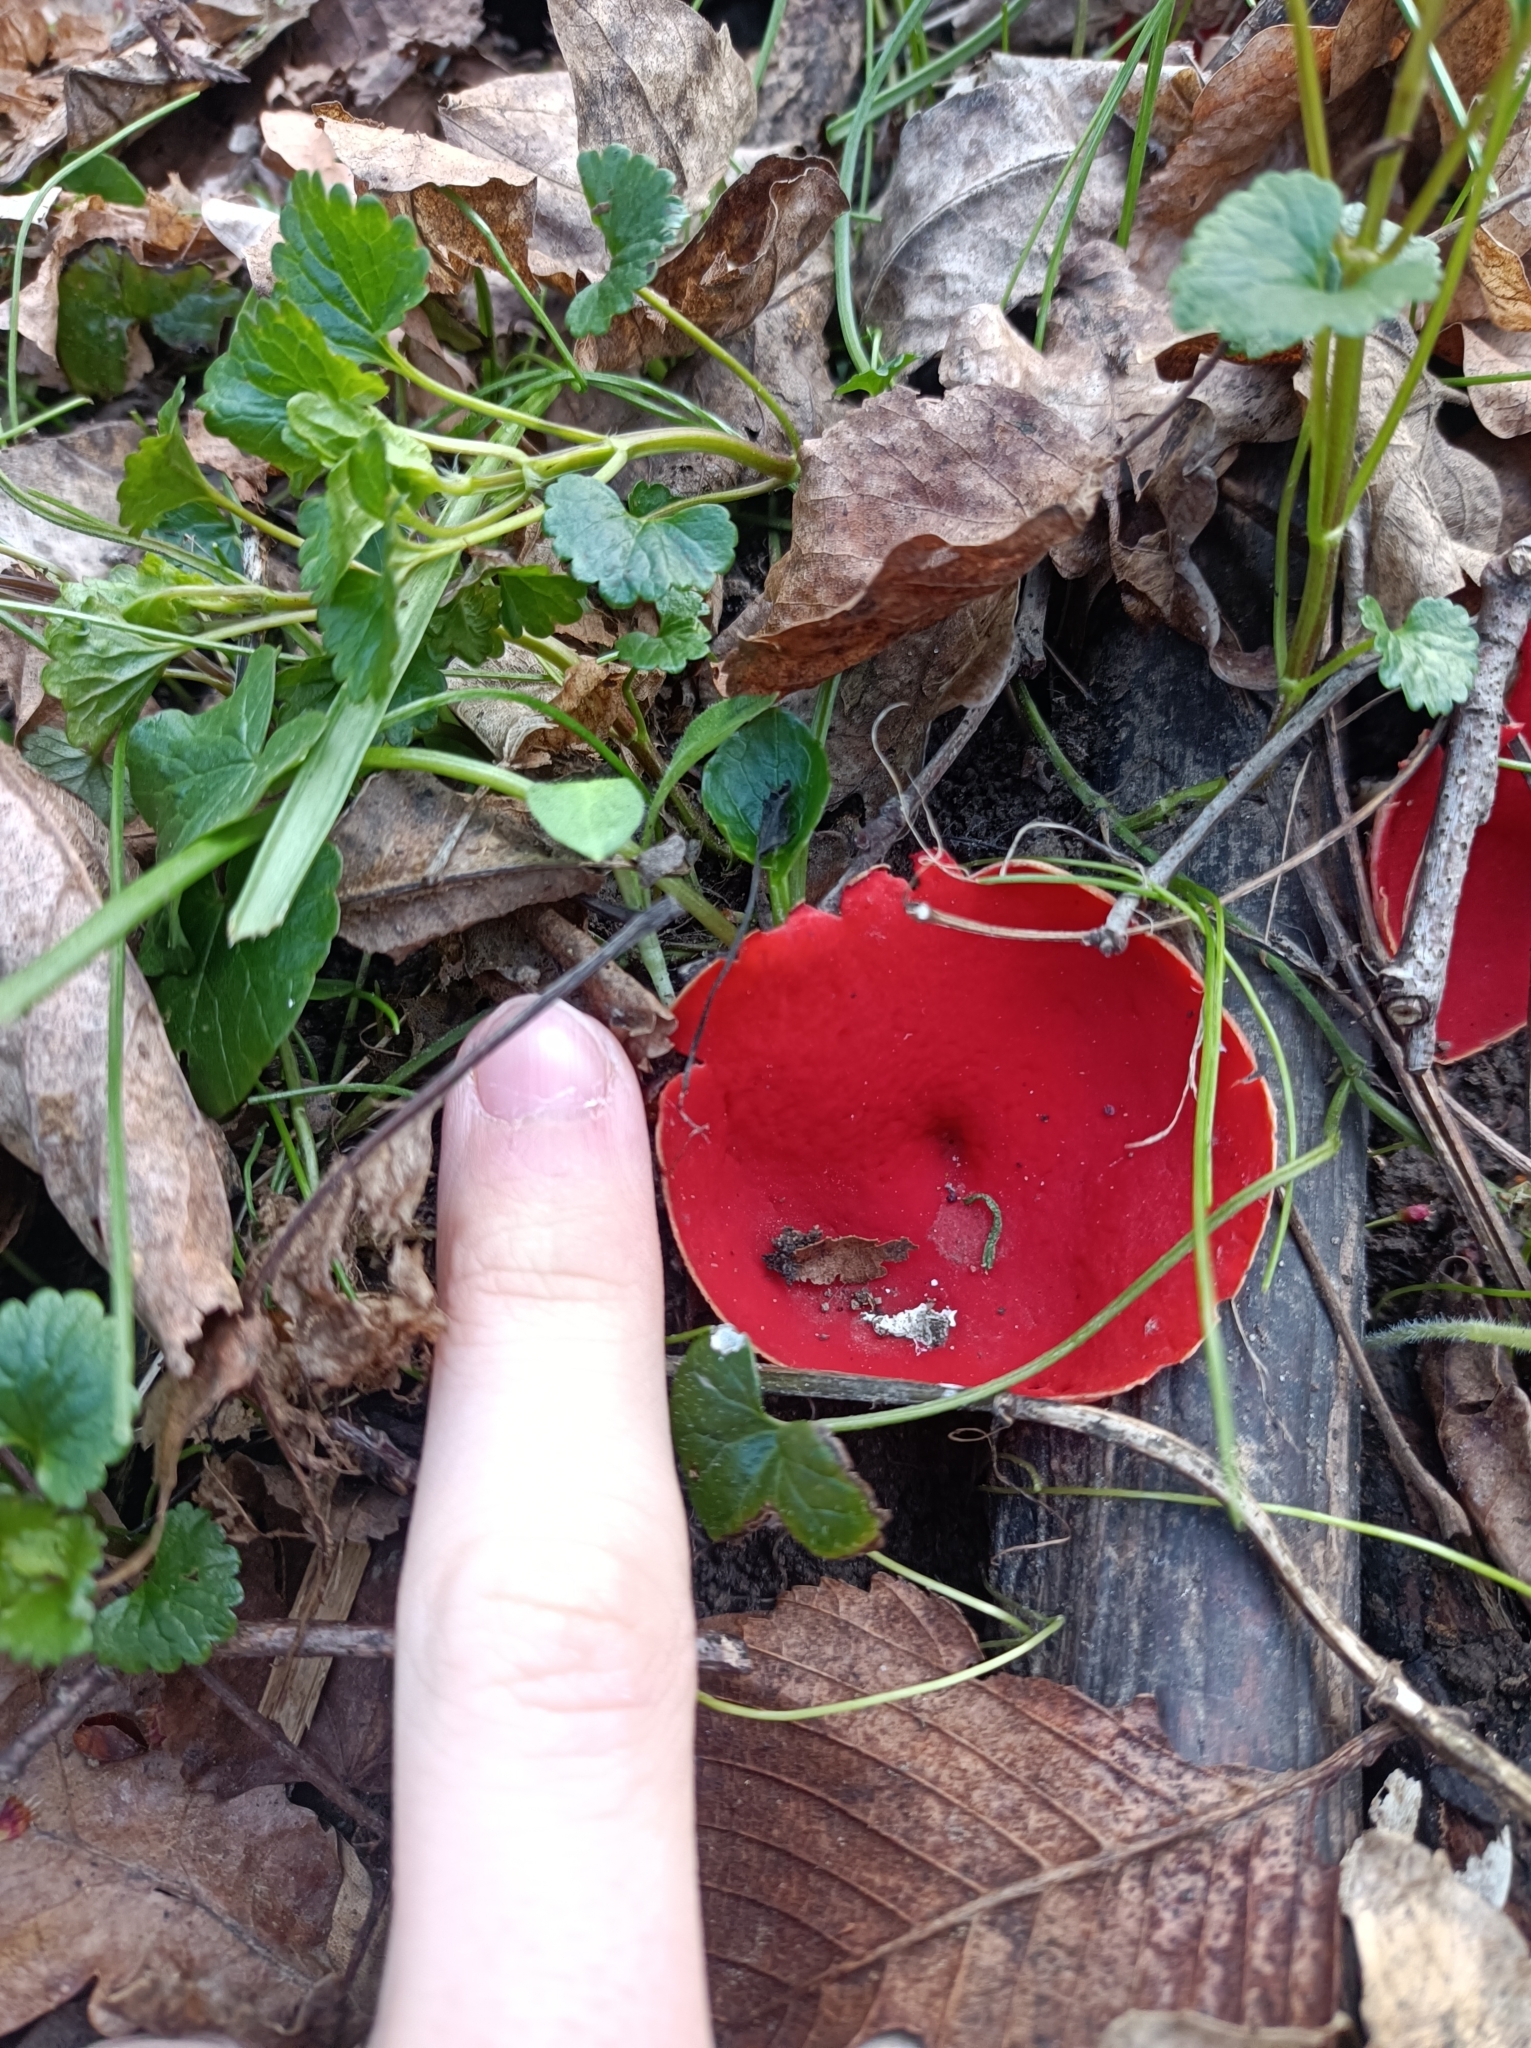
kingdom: Fungi
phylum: Ascomycota
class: Pezizomycetes
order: Pezizales
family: Sarcoscyphaceae
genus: Sarcoscypha
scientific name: Sarcoscypha
